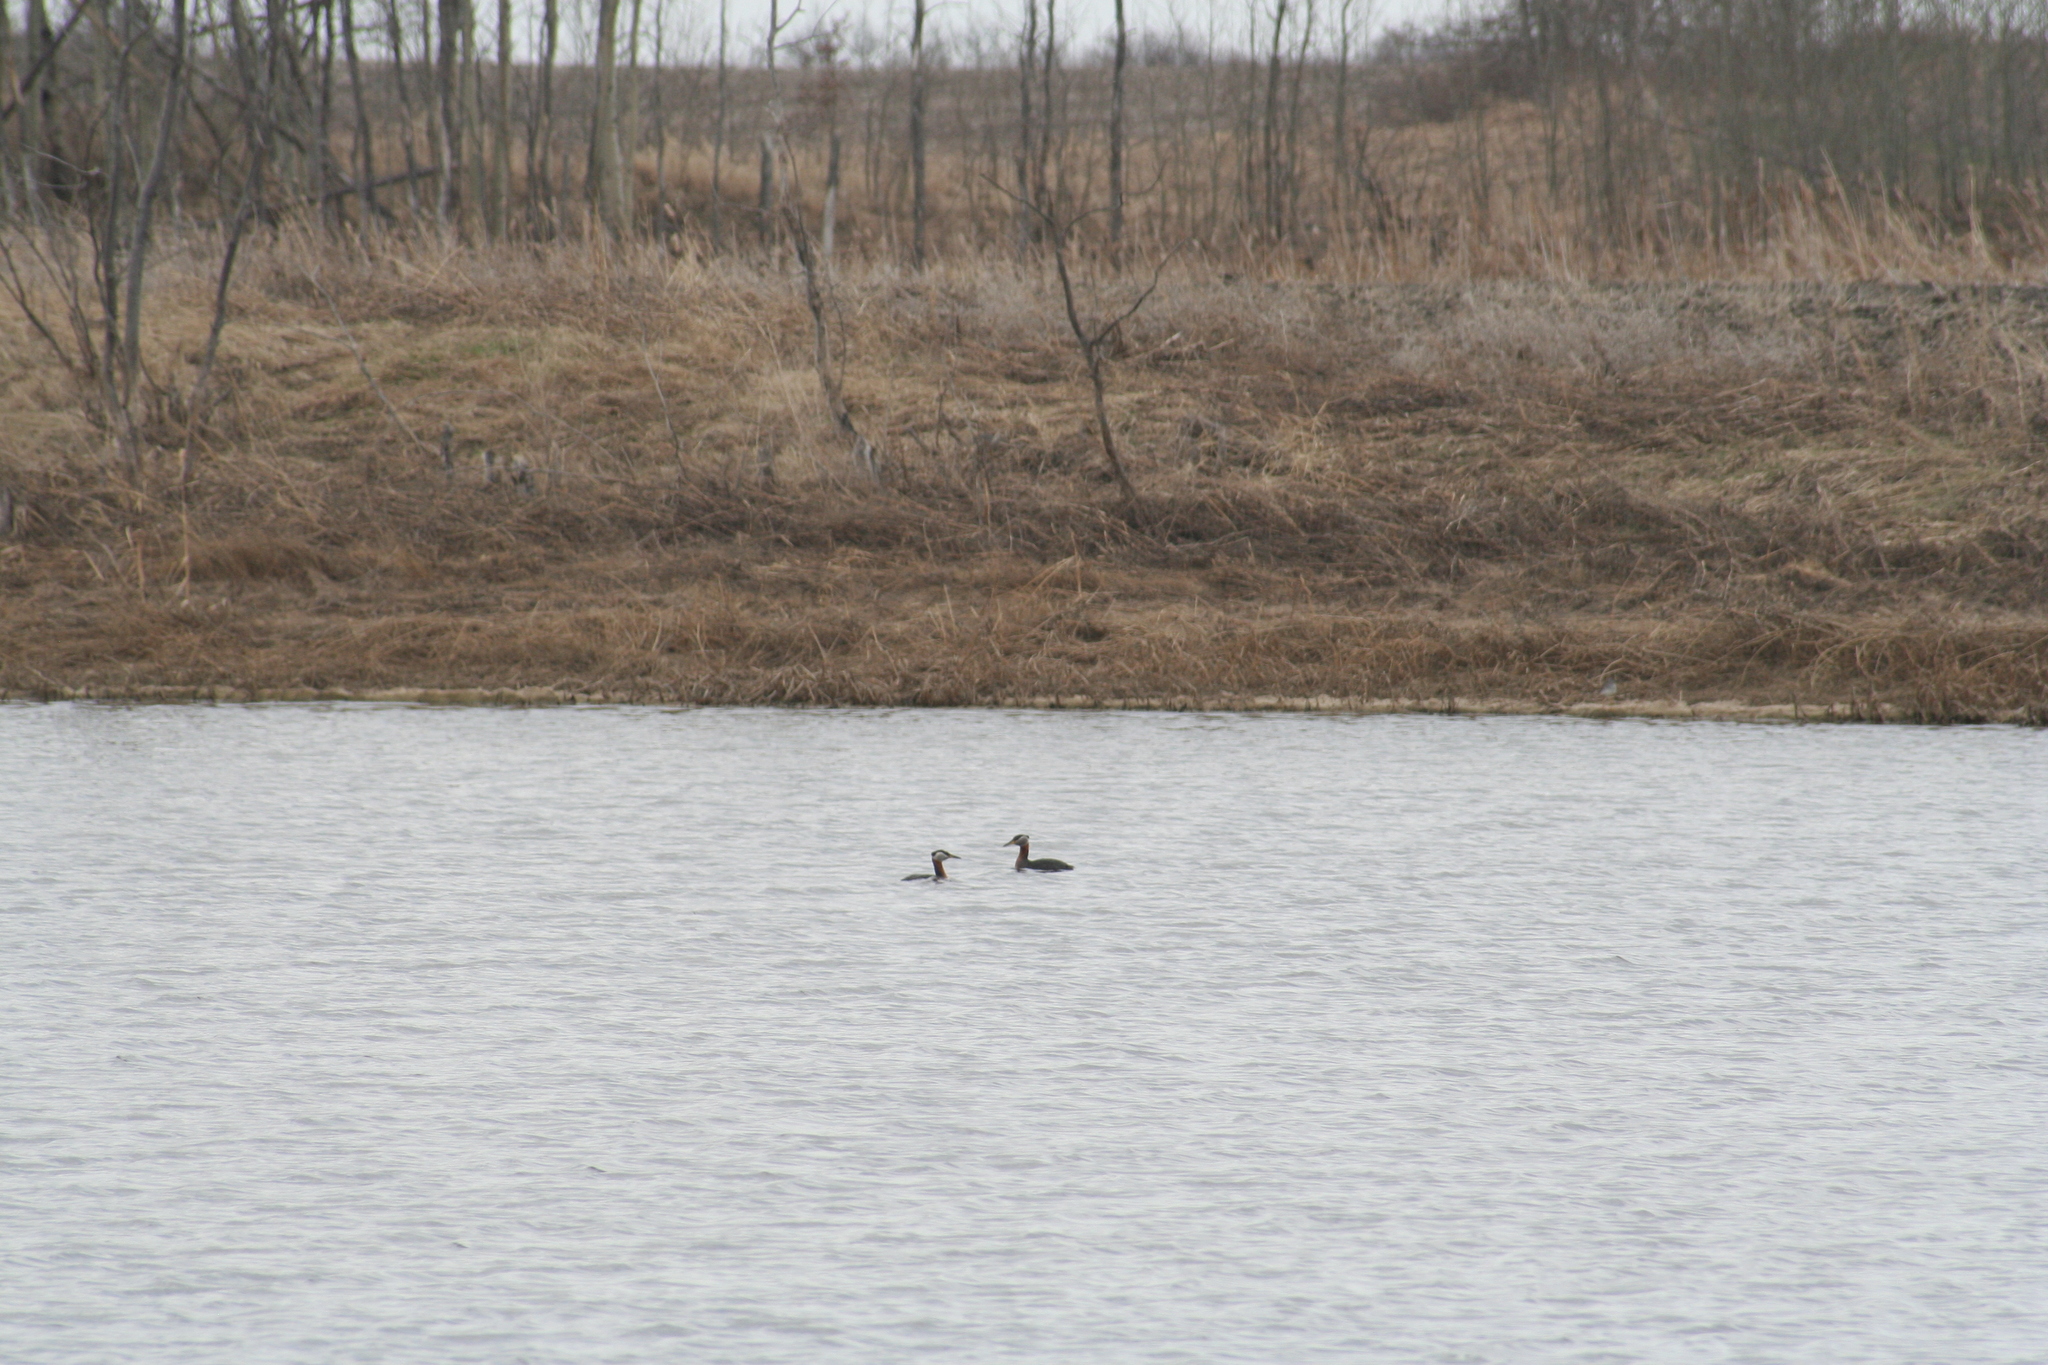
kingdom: Animalia
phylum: Chordata
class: Aves
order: Podicipediformes
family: Podicipedidae
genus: Podiceps
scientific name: Podiceps grisegena
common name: Red-necked grebe
